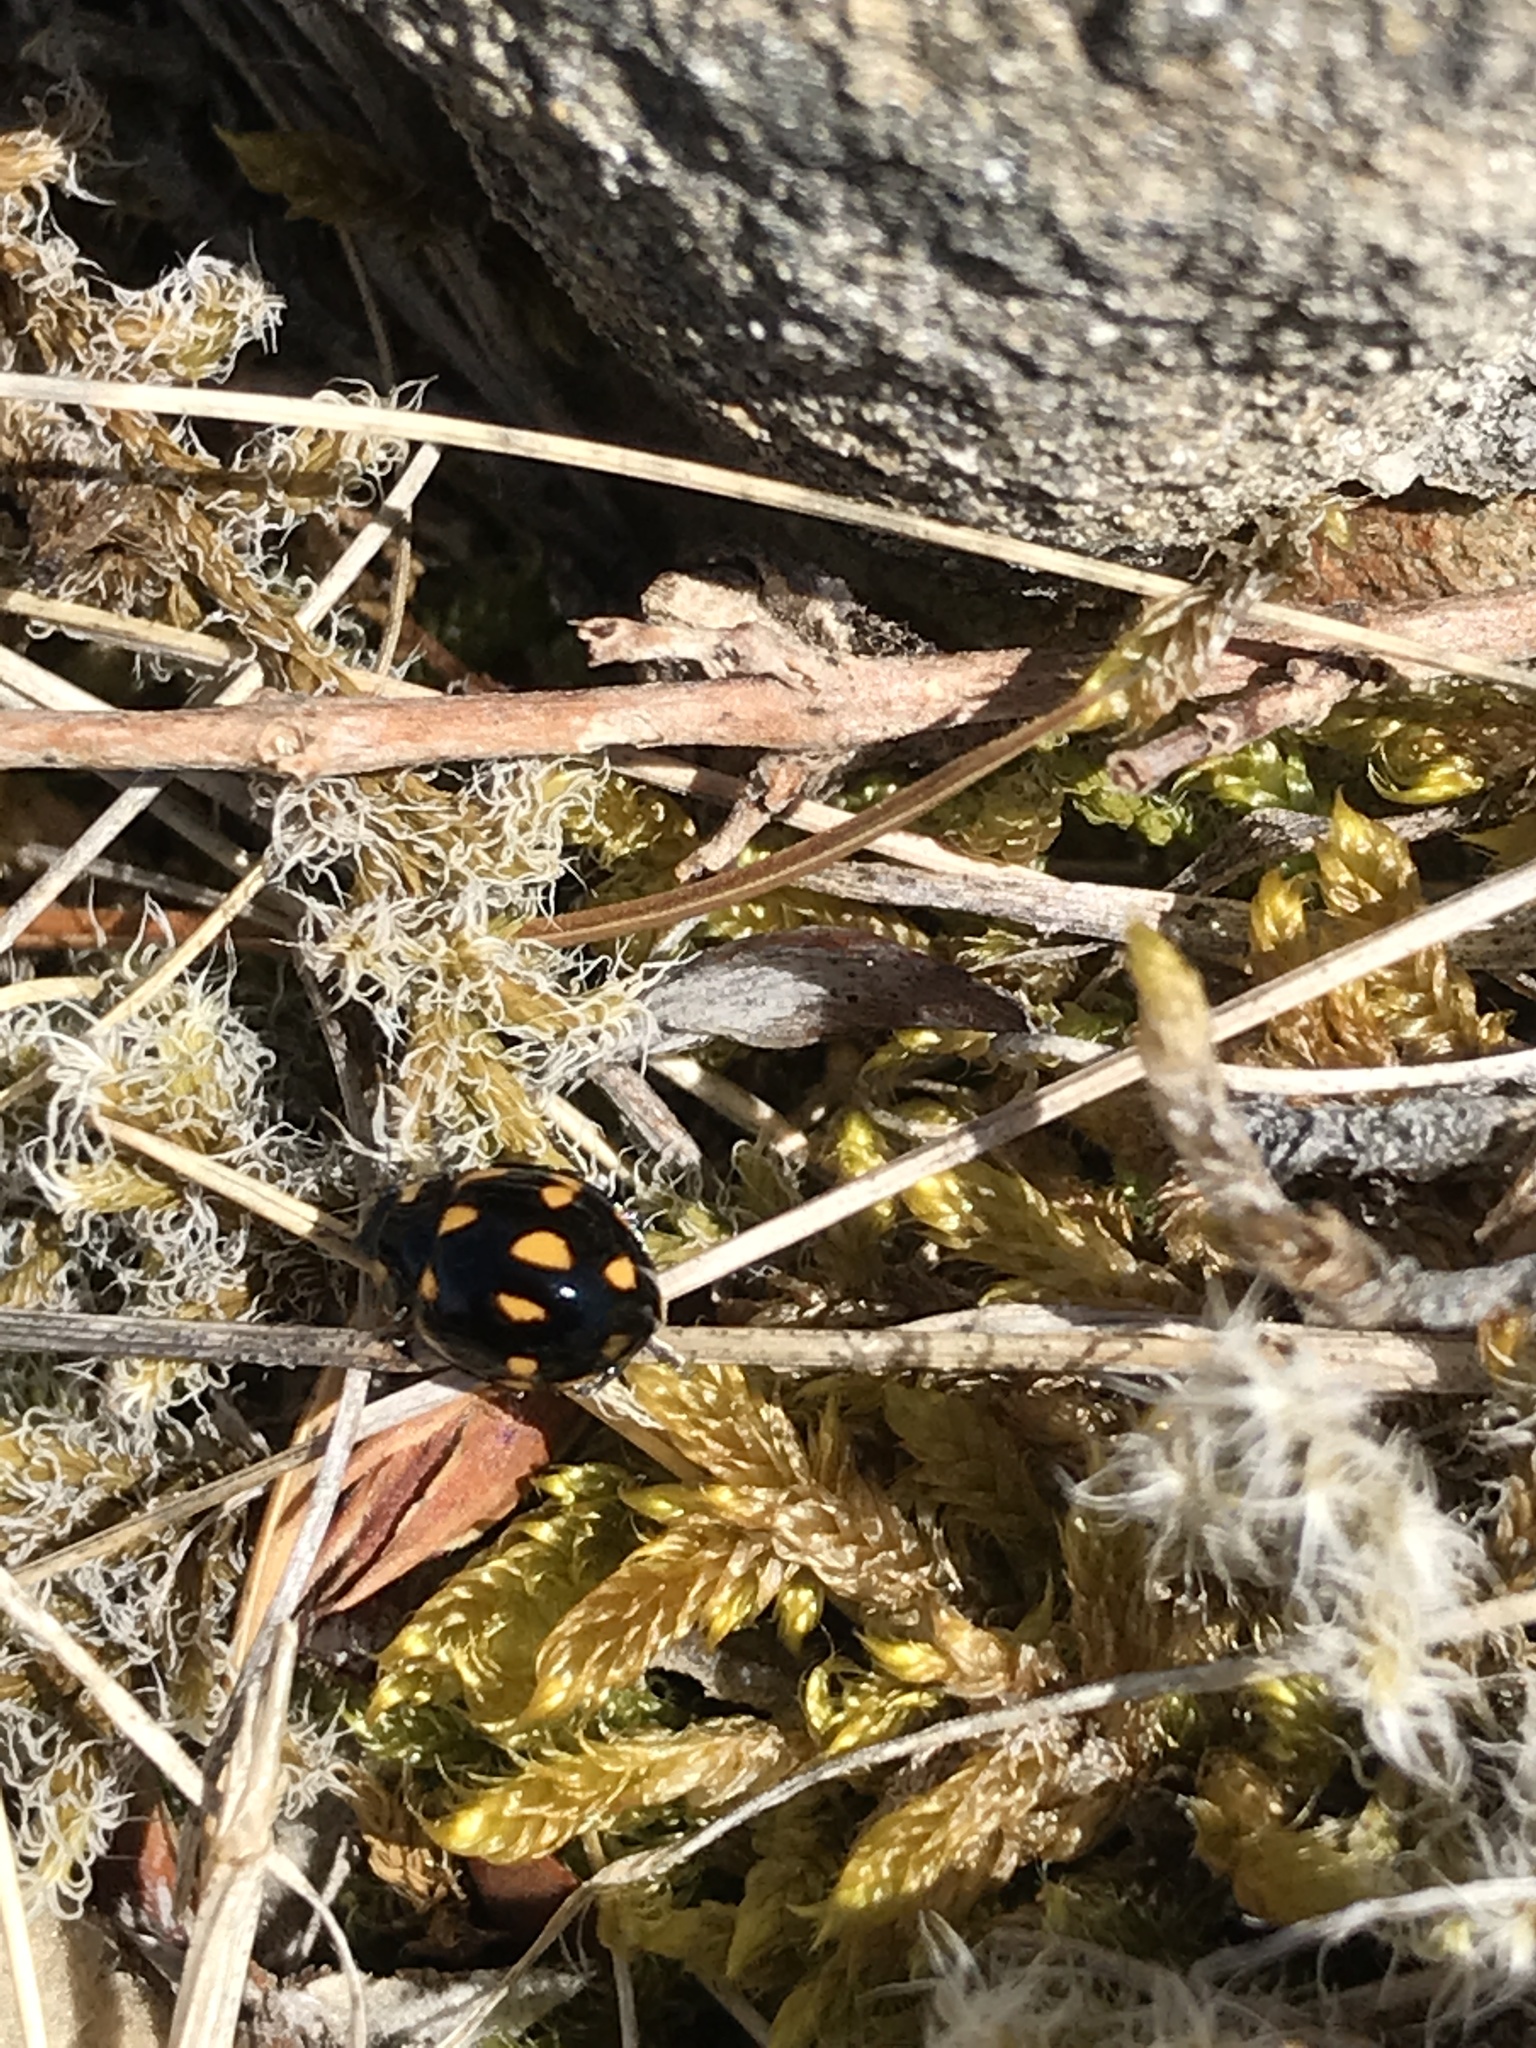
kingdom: Animalia
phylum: Arthropoda
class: Insecta
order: Coleoptera
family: Coccinellidae
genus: Coccinella
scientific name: Coccinella leonina
